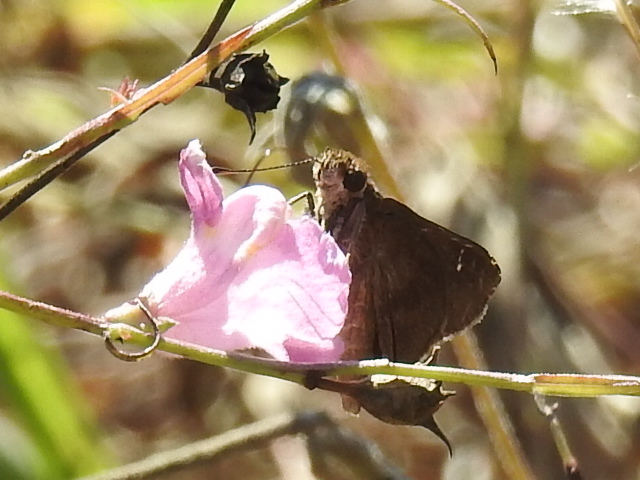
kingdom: Animalia
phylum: Arthropoda
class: Insecta
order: Lepidoptera
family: Hesperiidae
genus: Lerema
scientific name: Lerema accius
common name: Clouded skipper
